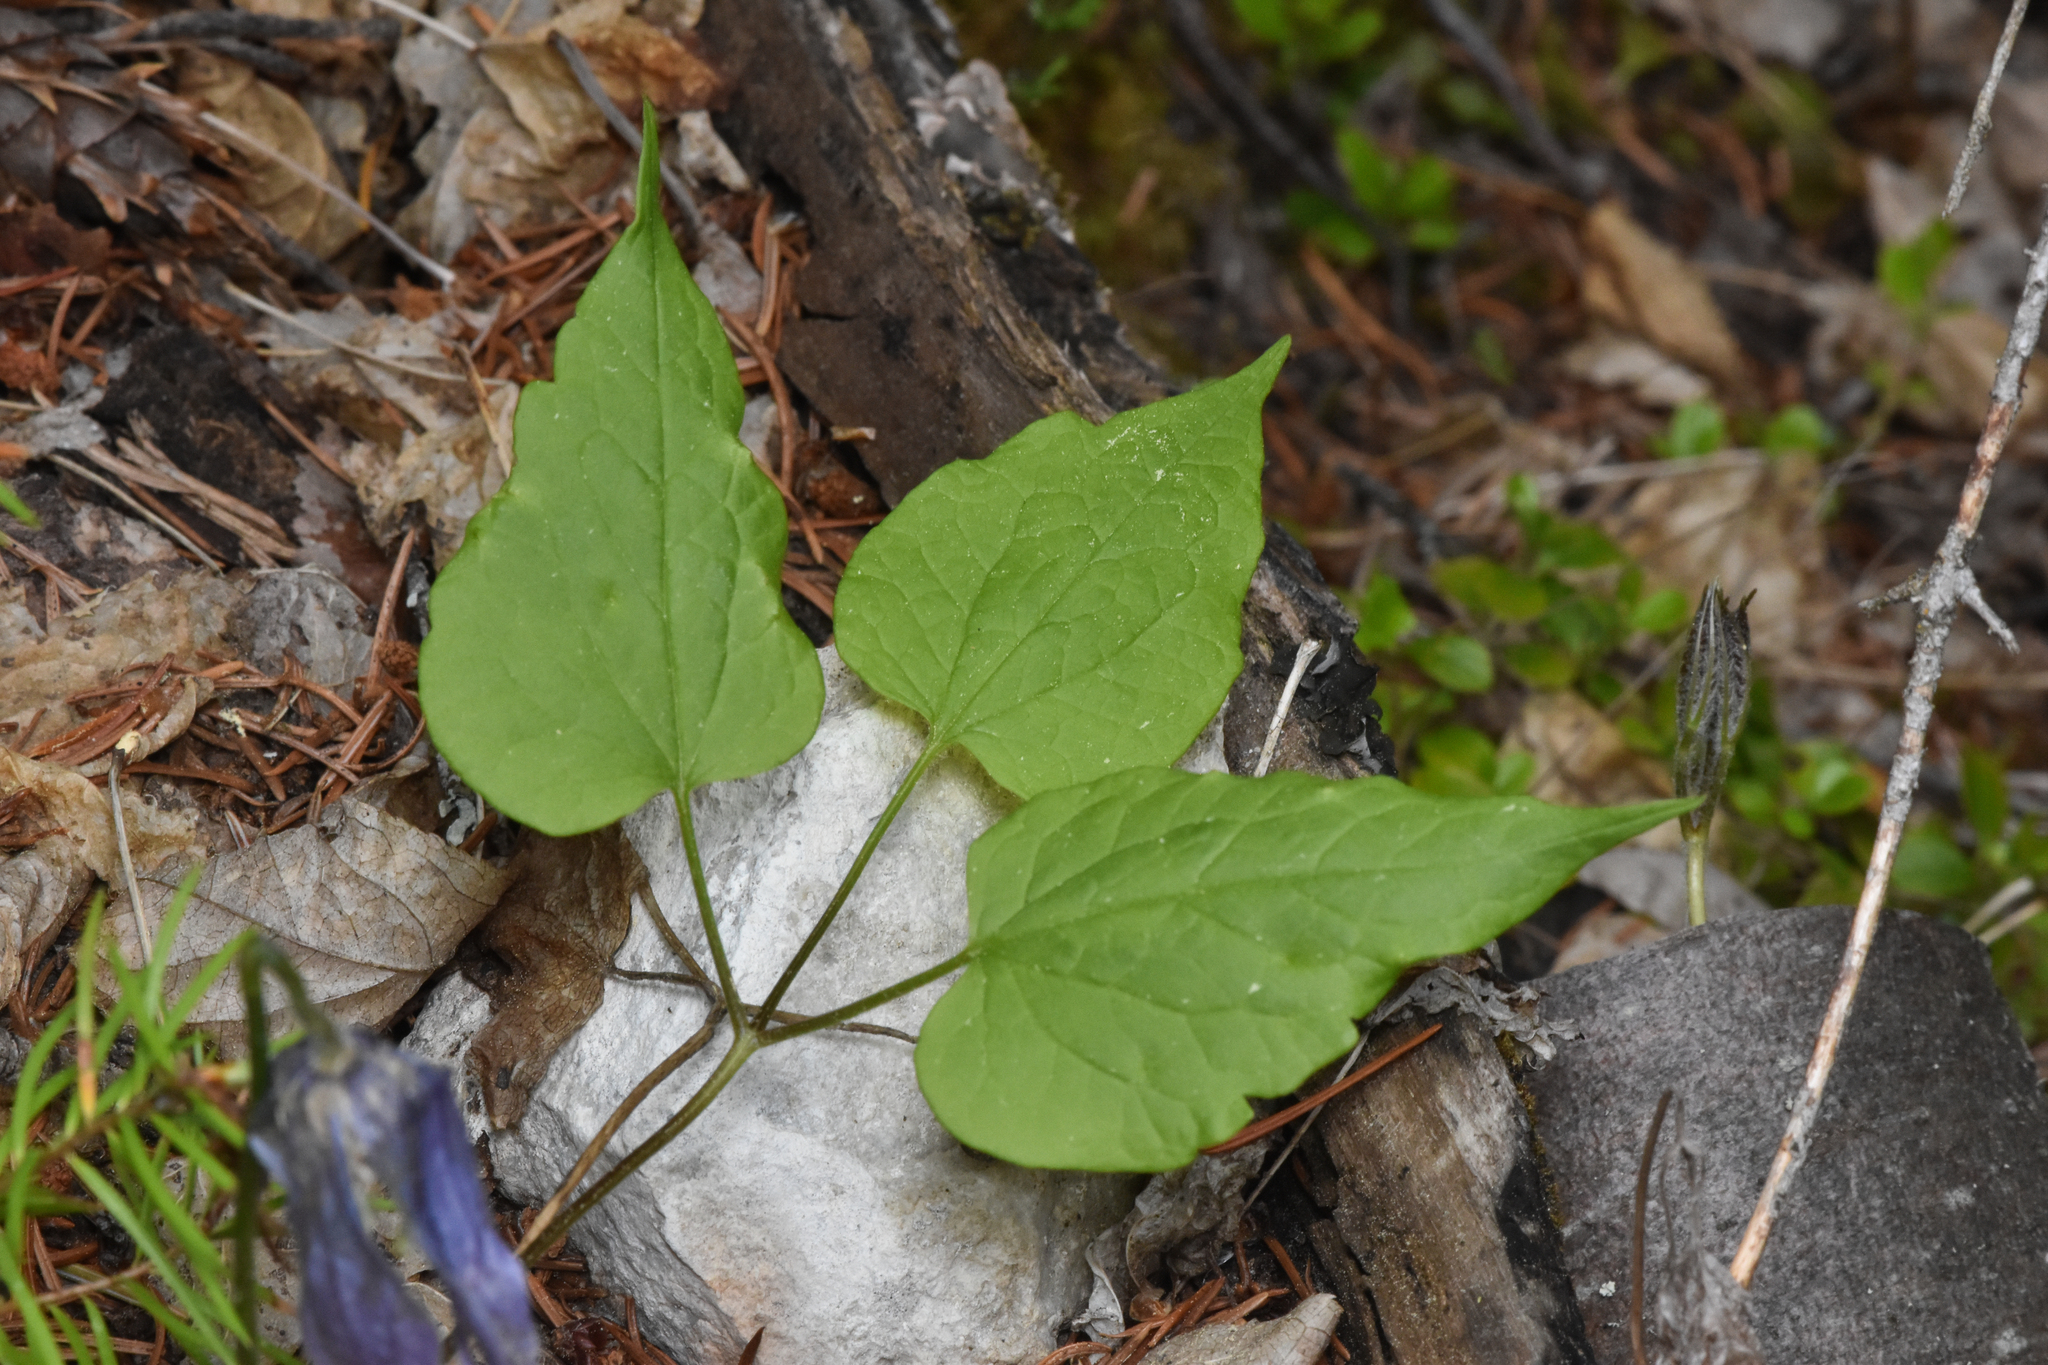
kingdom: Plantae
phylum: Tracheophyta
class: Magnoliopsida
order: Ranunculales
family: Ranunculaceae
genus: Clematis
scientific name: Clematis occidentalis
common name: Purple clematis
